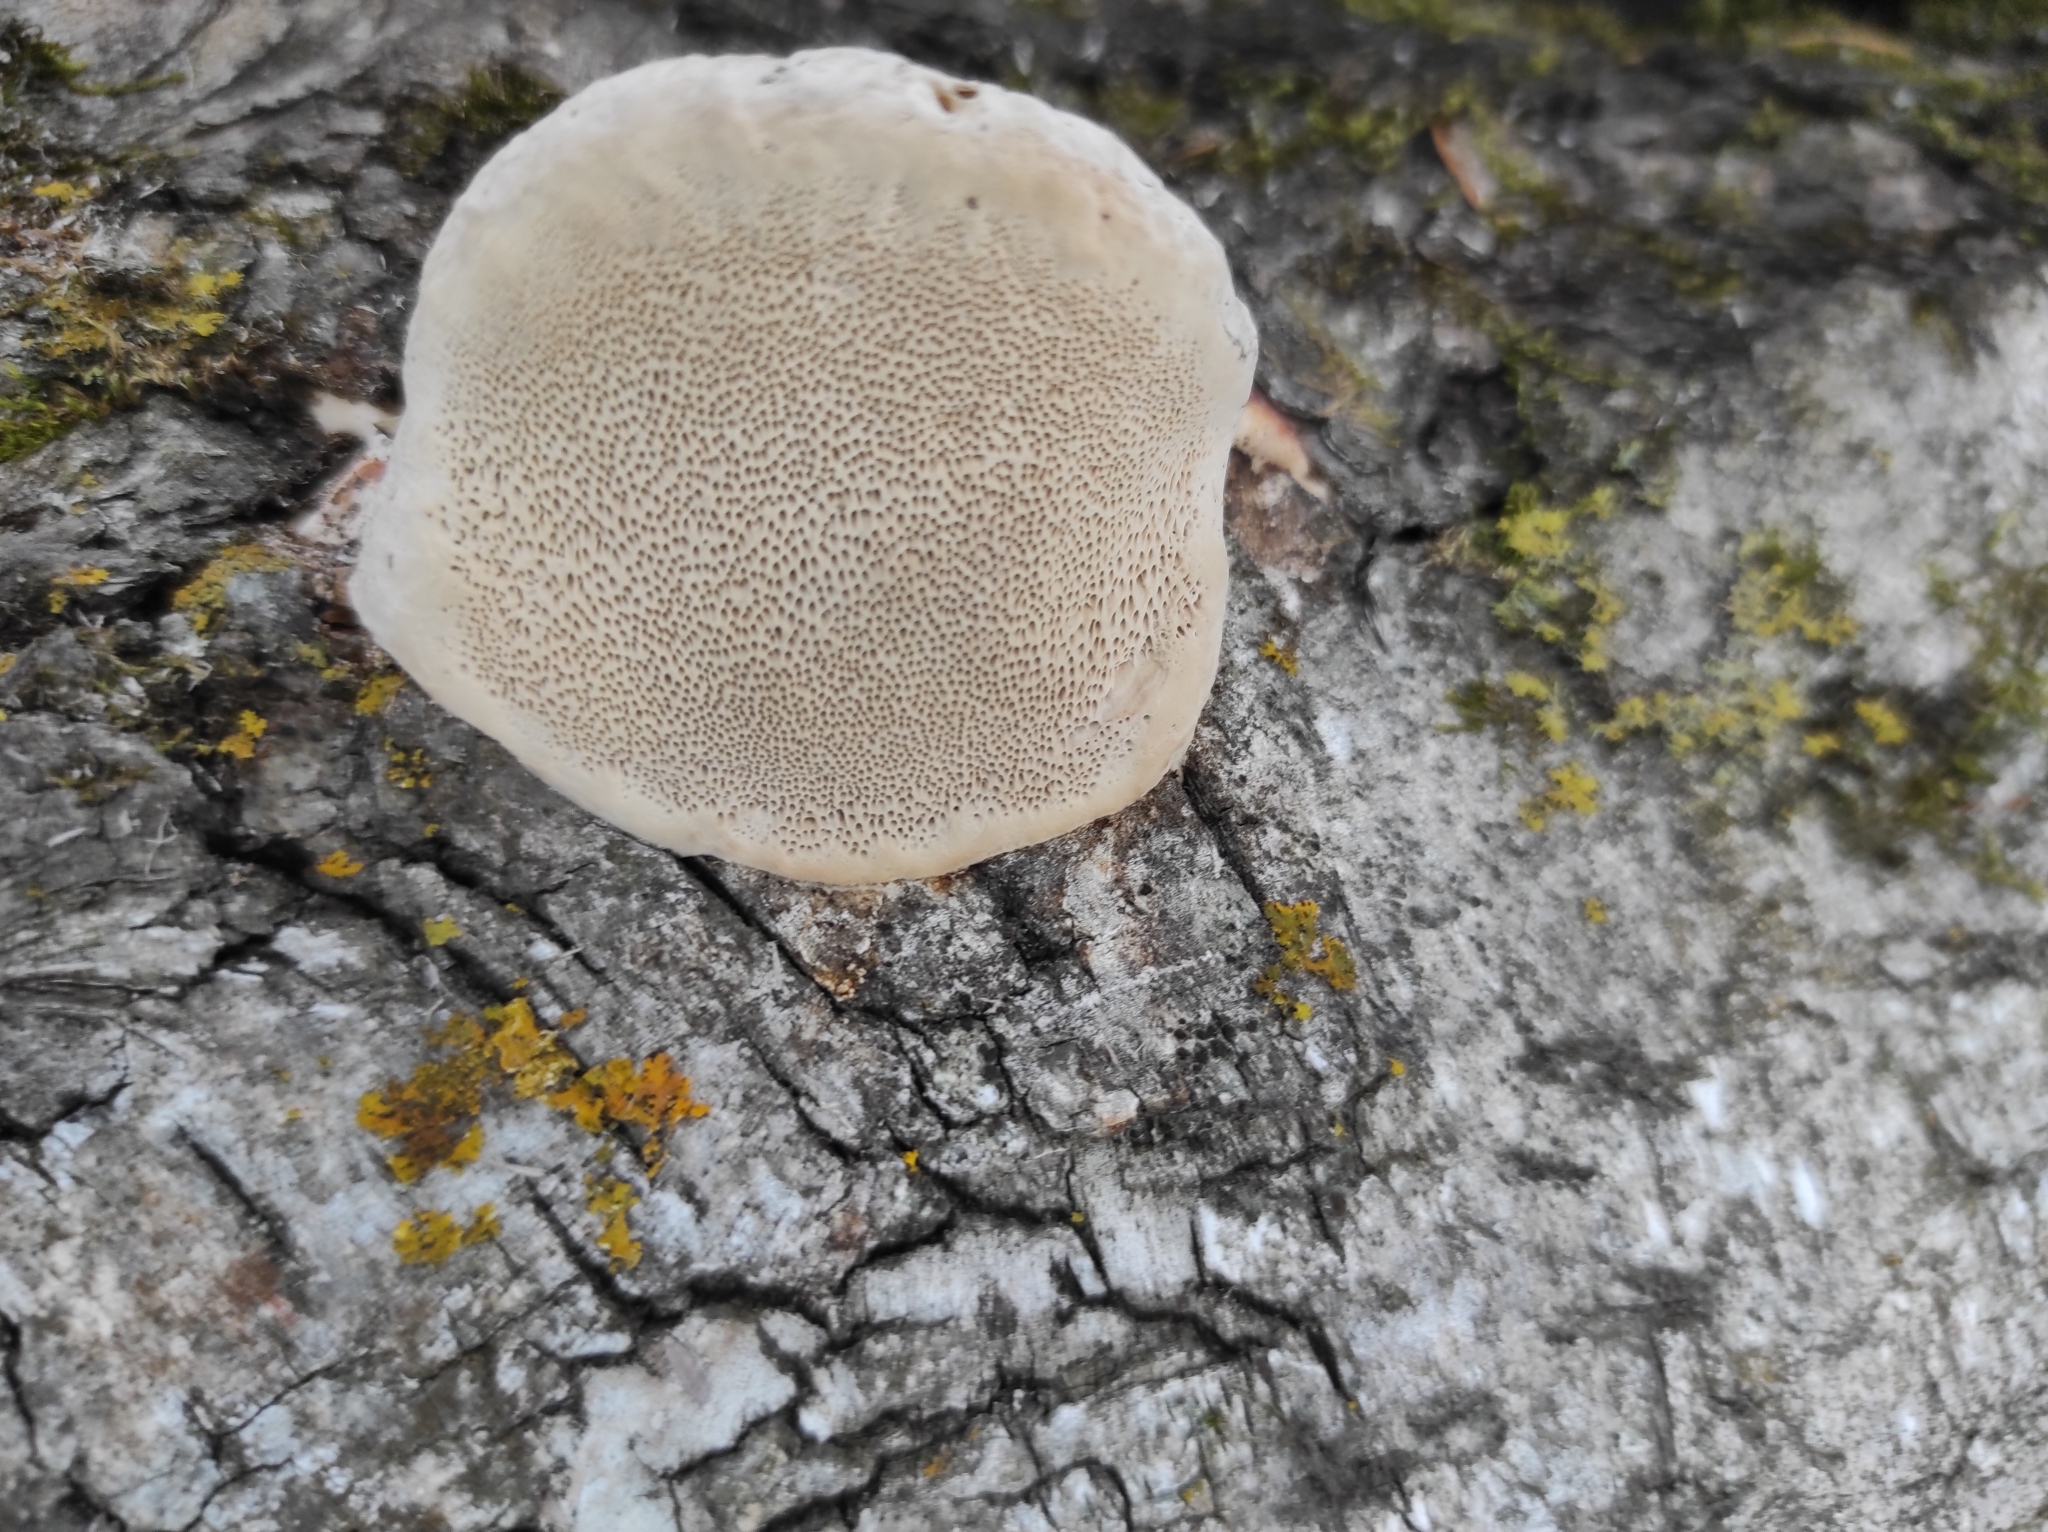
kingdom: Fungi
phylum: Basidiomycota
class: Agaricomycetes
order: Polyporales
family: Fomitopsidaceae
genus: Fomitopsis
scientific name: Fomitopsis pinicola
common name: Red-belted bracket
